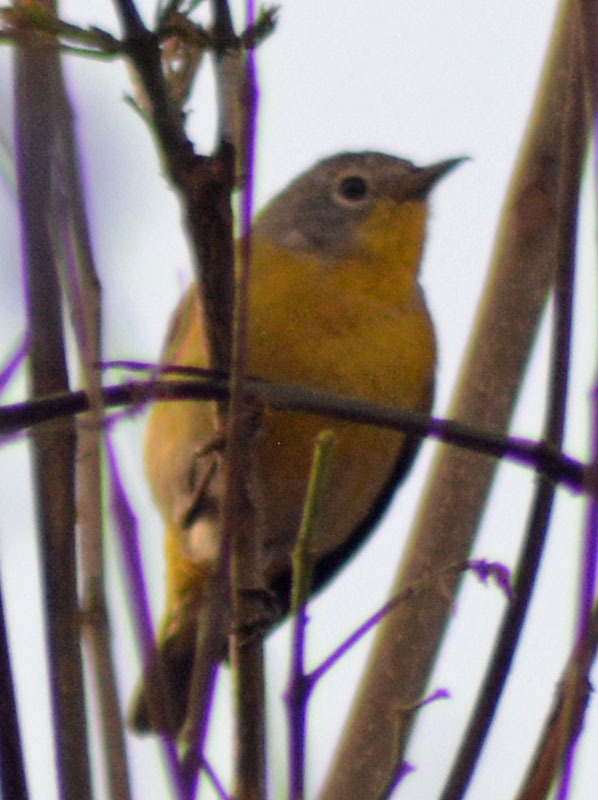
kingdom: Animalia
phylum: Chordata
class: Aves
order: Passeriformes
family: Parulidae
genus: Leiothlypis
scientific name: Leiothlypis ruficapilla
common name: Nashville warbler
